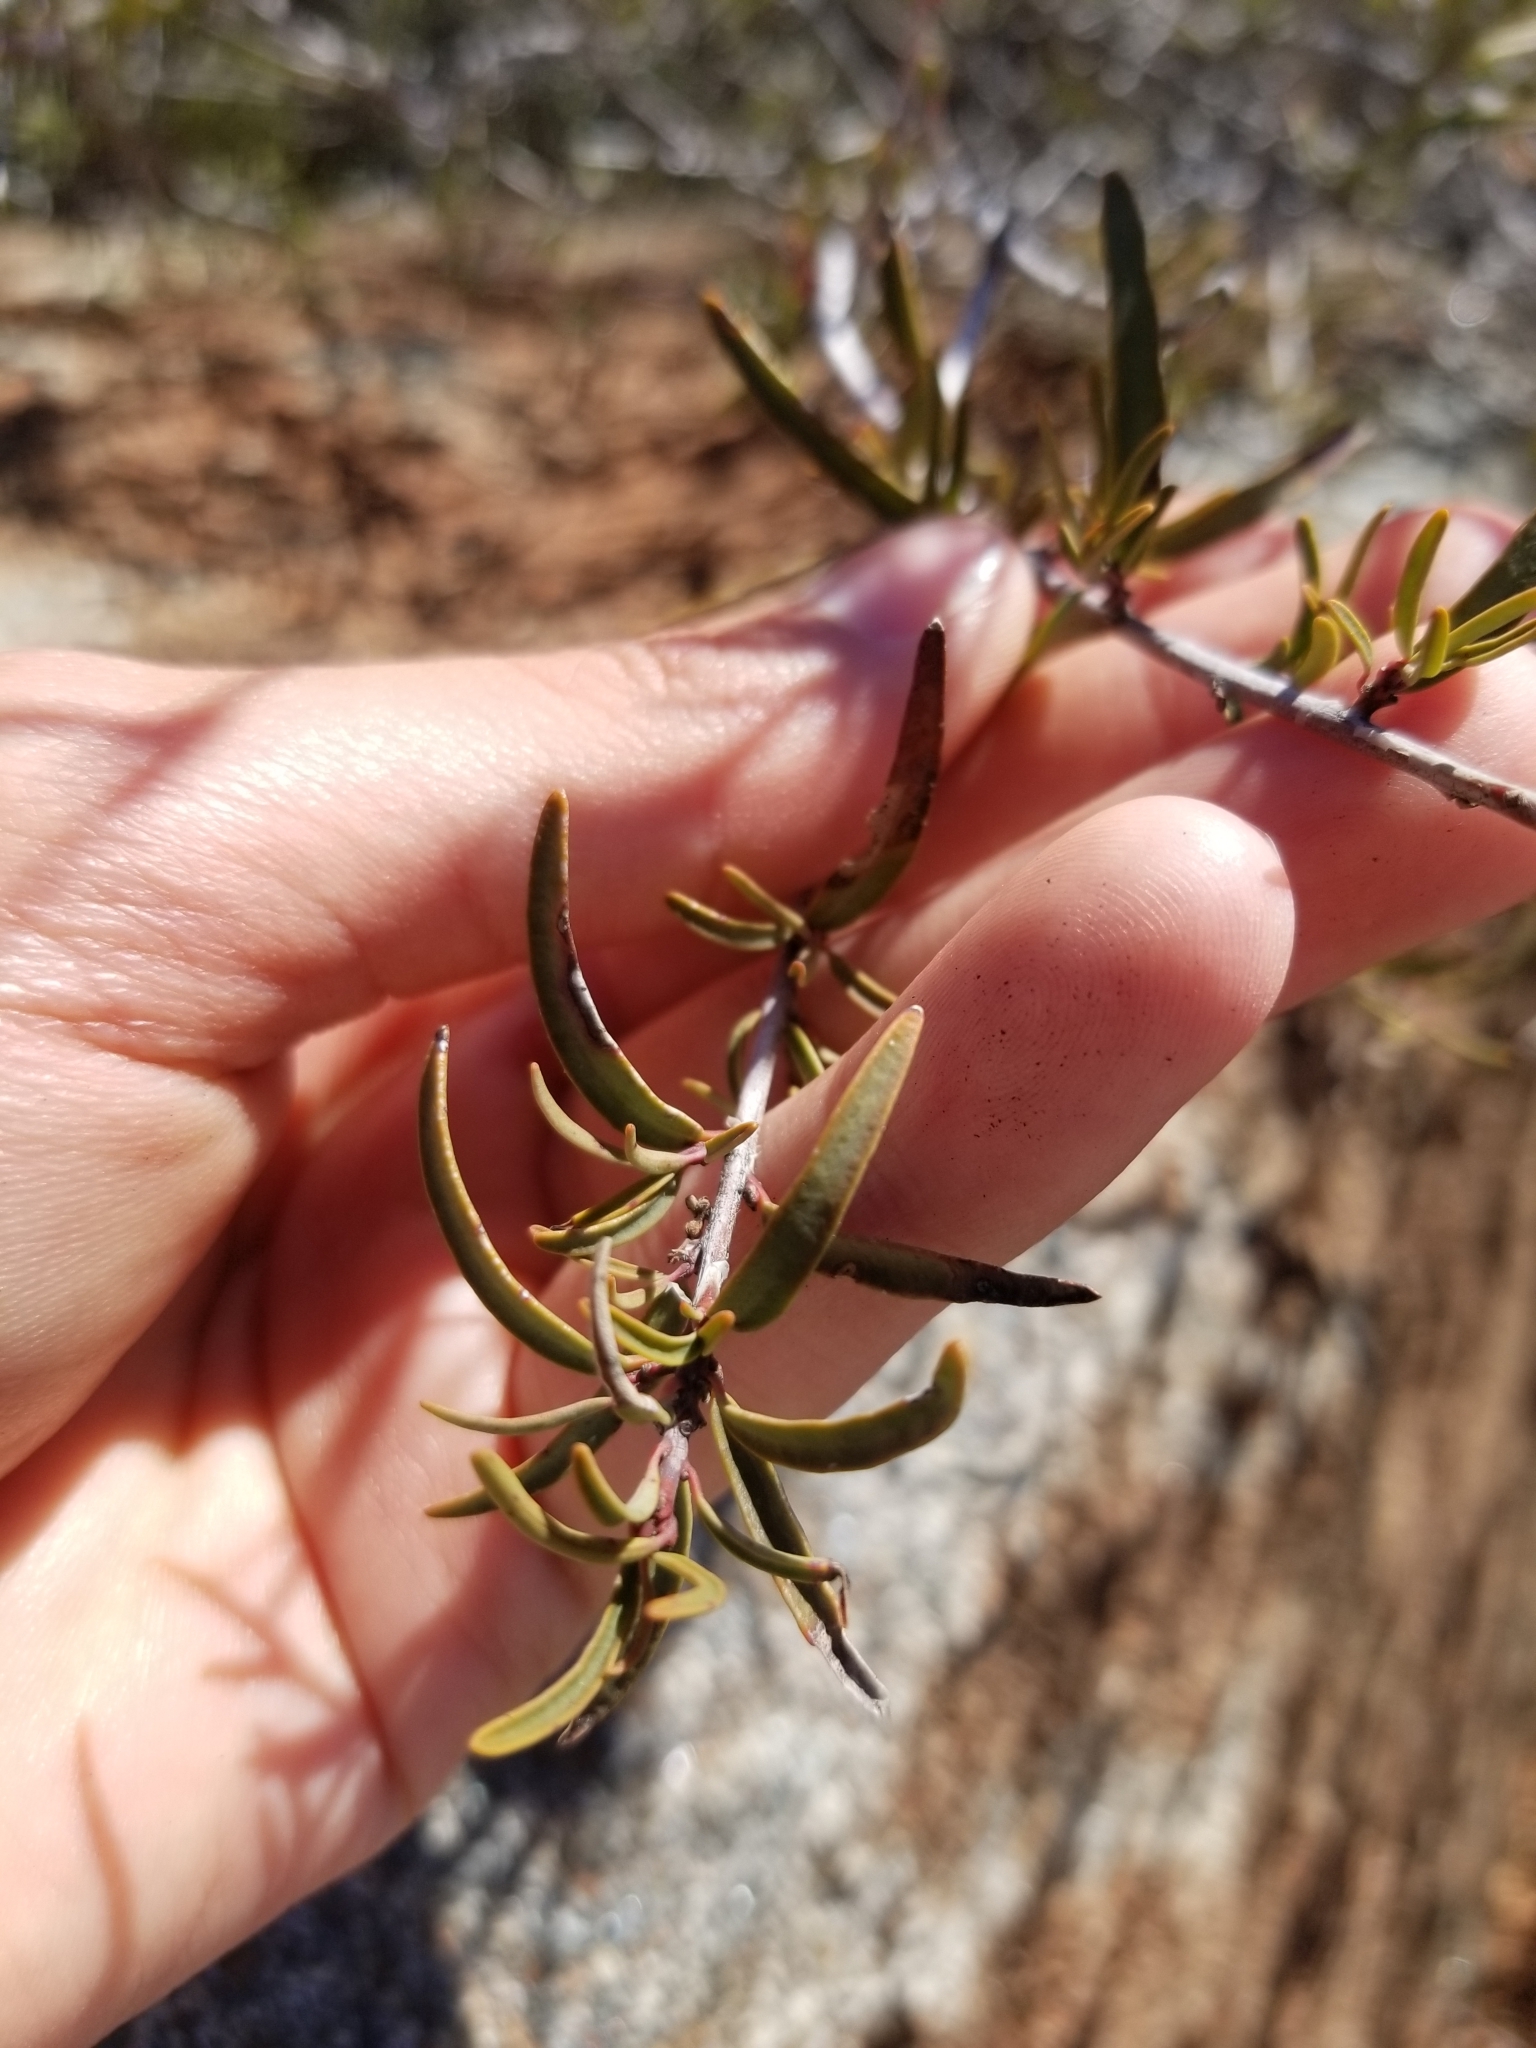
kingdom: Plantae
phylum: Tracheophyta
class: Magnoliopsida
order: Malpighiales
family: Picrodendraceae
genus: Tetracoccus
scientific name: Tetracoccus dioicus
